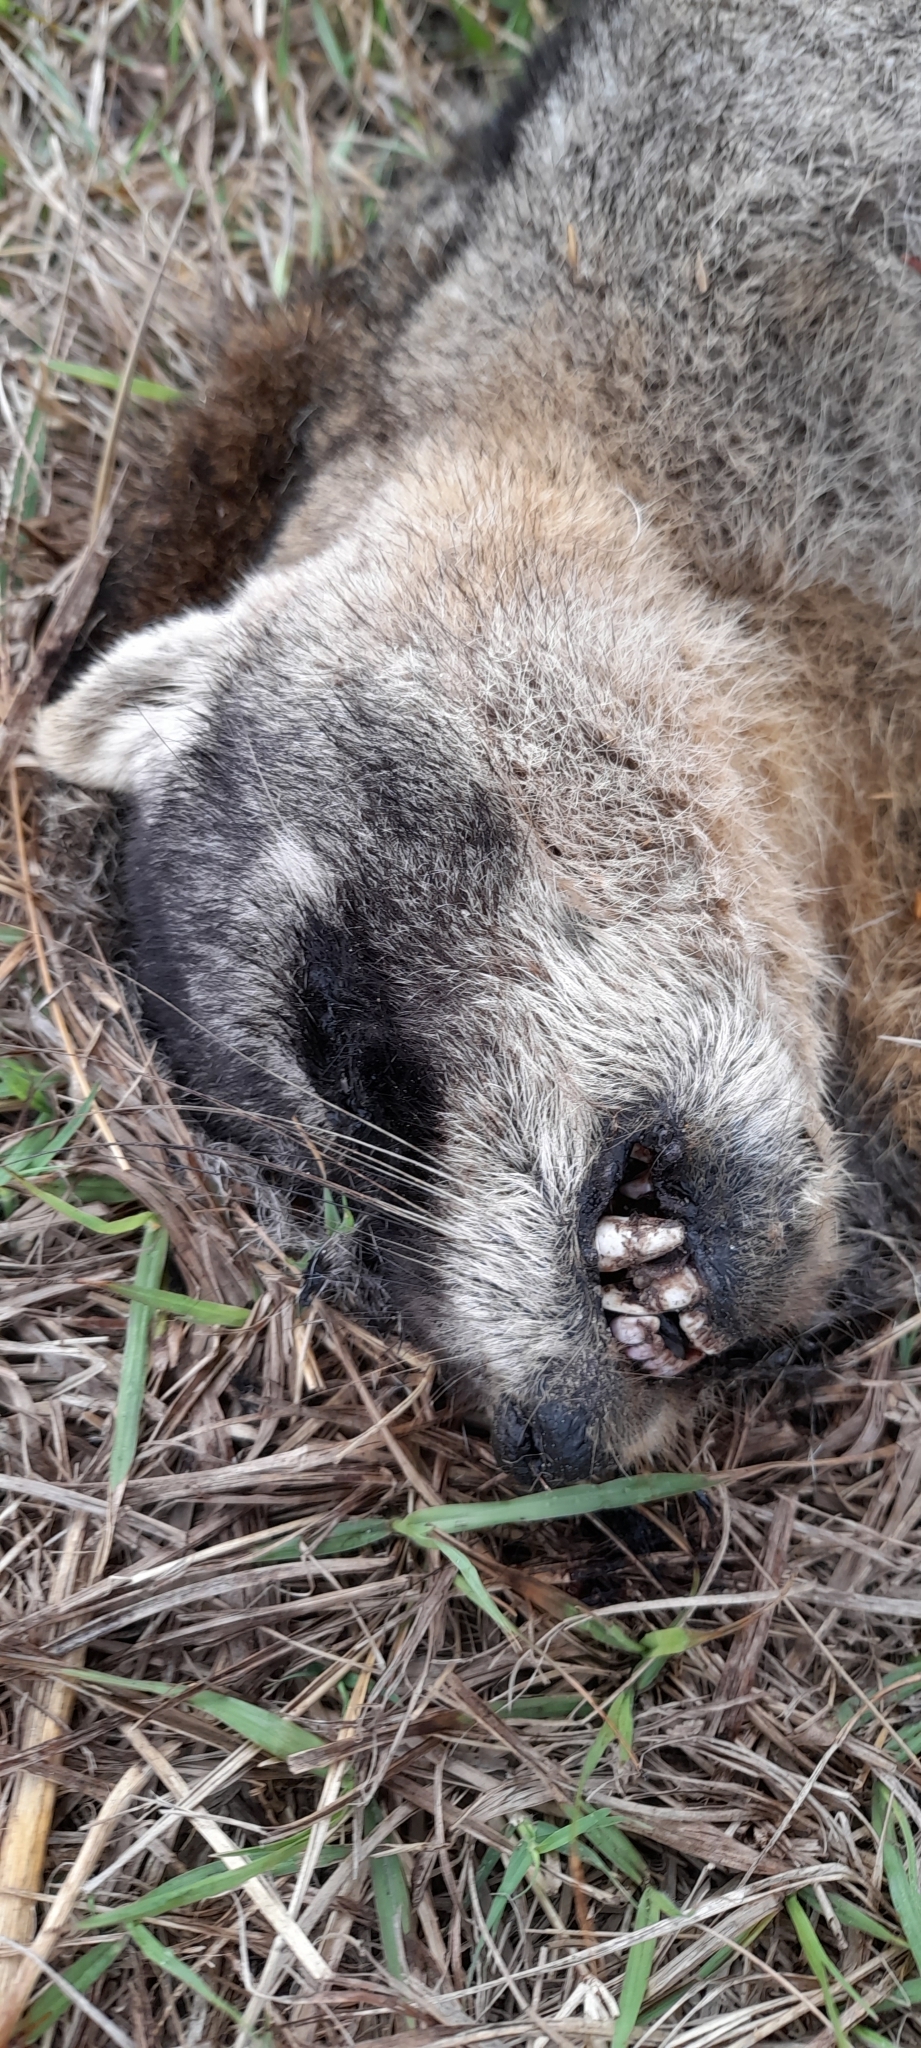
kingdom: Animalia
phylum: Chordata
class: Mammalia
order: Carnivora
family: Procyonidae
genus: Procyon
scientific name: Procyon cancrivorus
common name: Crab-eating raccoon
